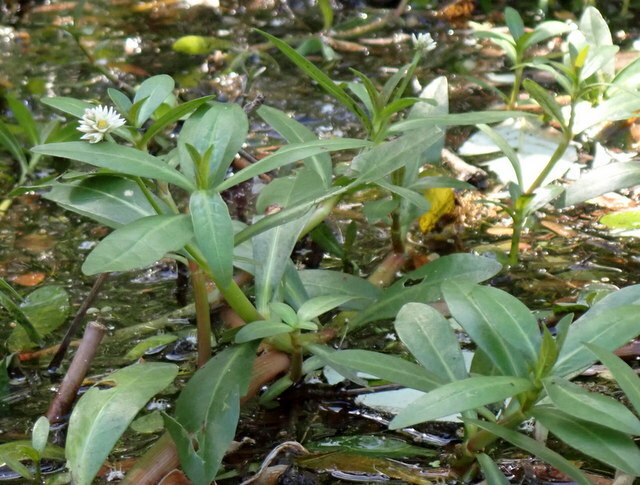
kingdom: Plantae
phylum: Tracheophyta
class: Magnoliopsida
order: Caryophyllales
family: Amaranthaceae
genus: Alternanthera
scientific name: Alternanthera philoxeroides
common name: Alligatorweed
